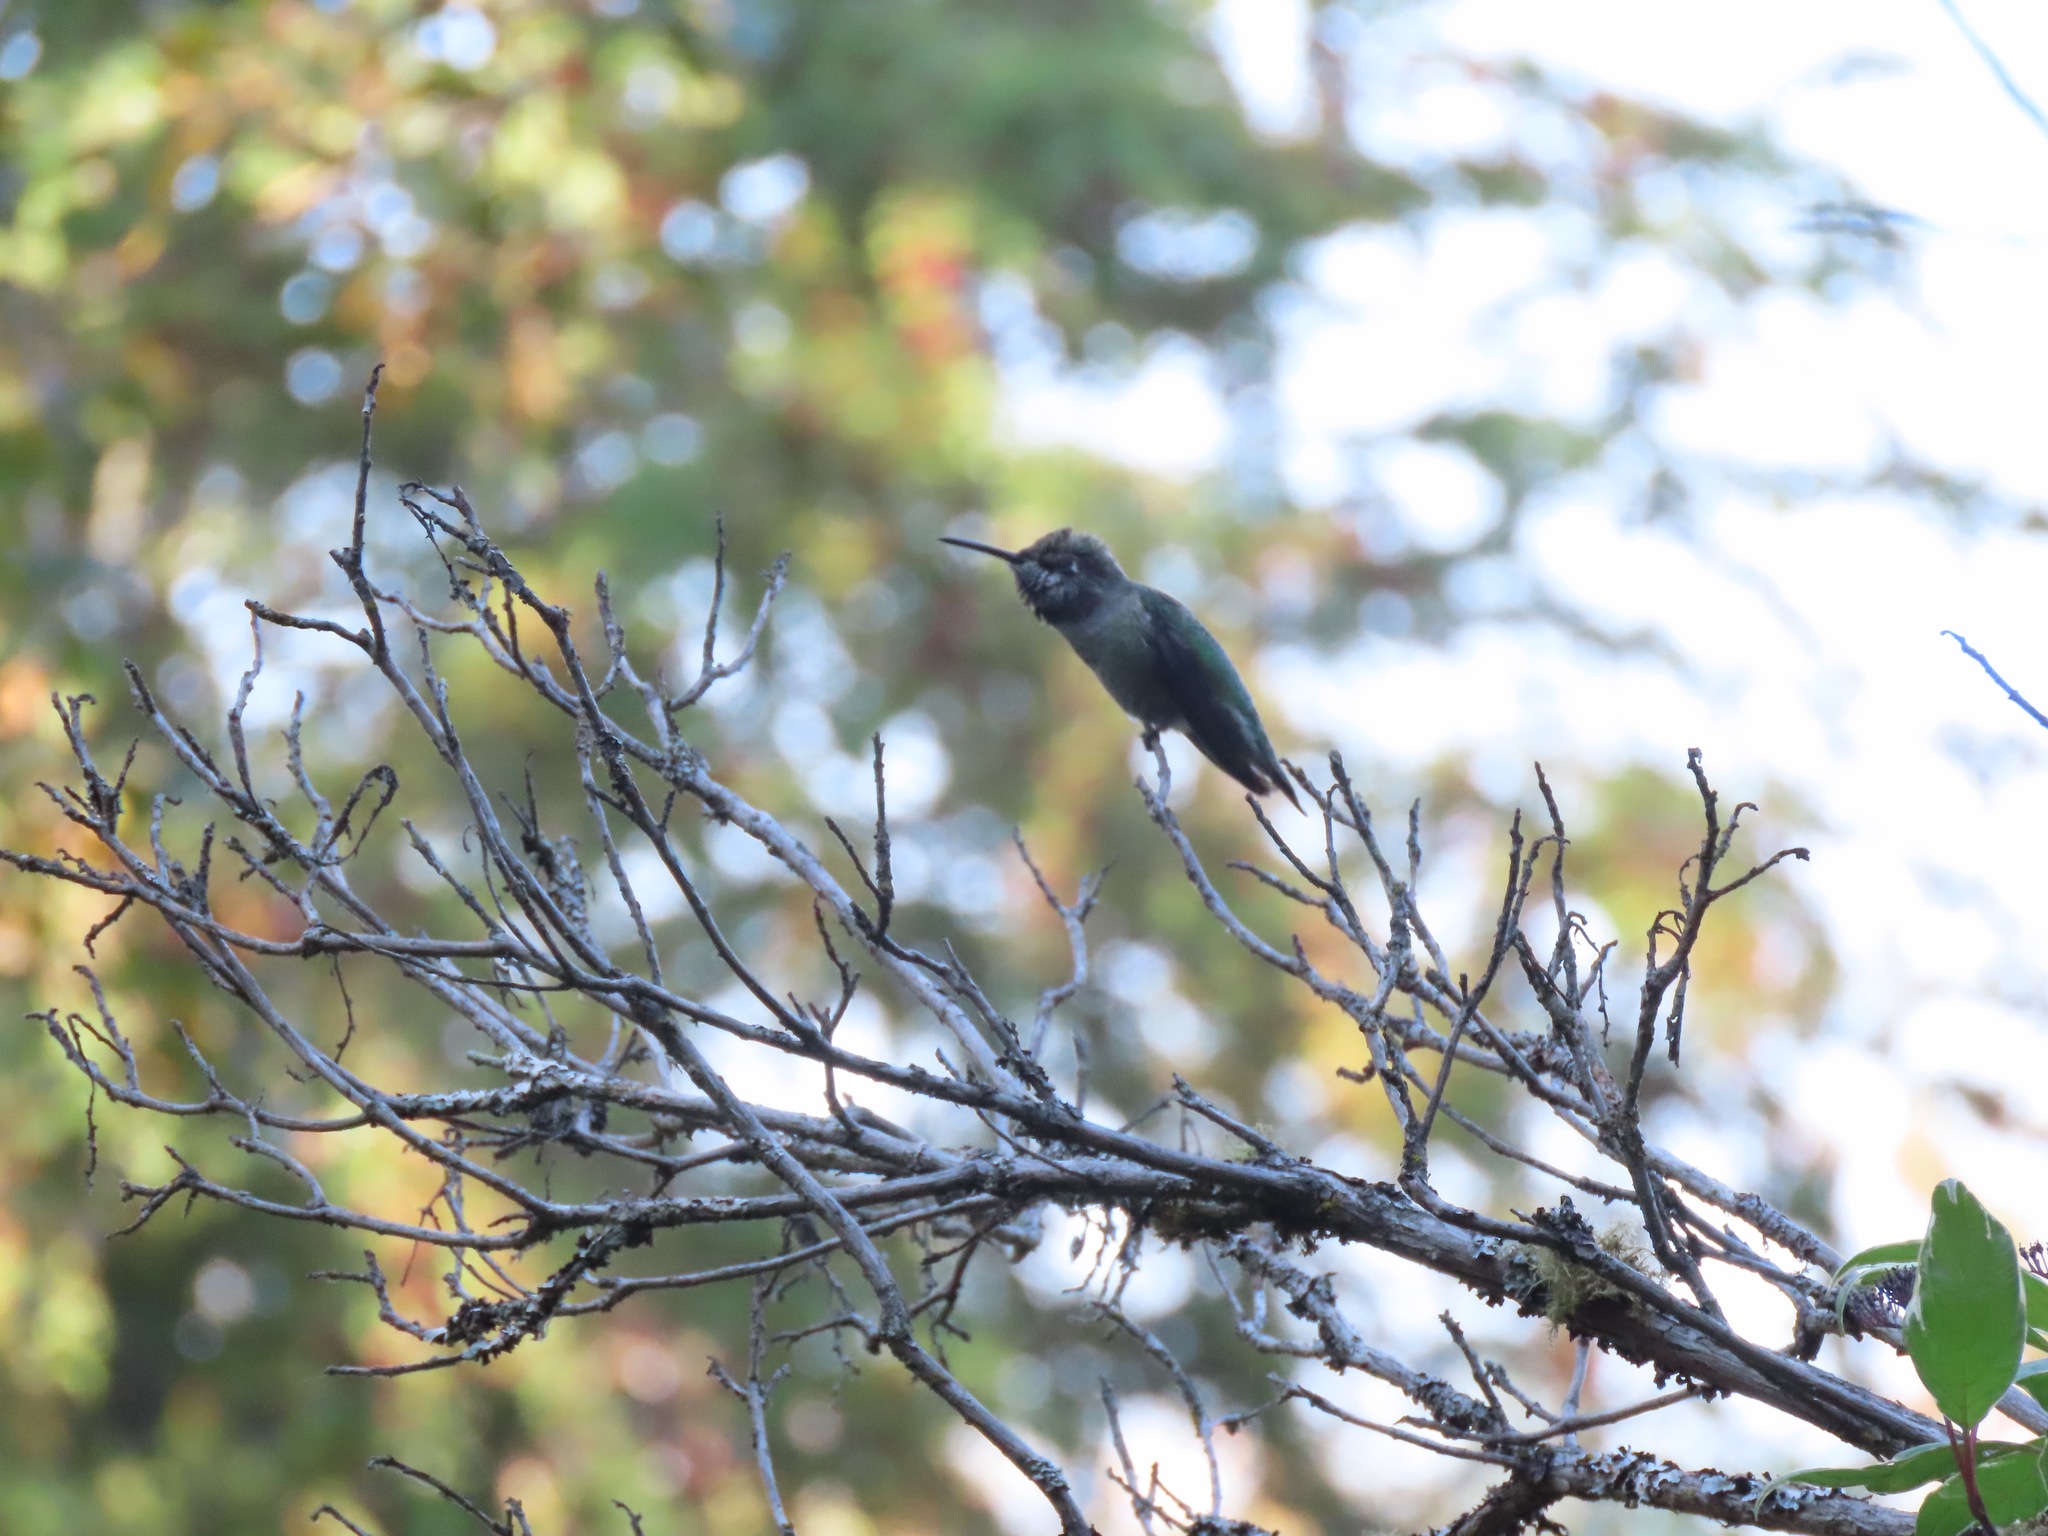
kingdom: Animalia
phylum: Chordata
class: Aves
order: Apodiformes
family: Trochilidae
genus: Calypte
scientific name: Calypte anna
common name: Anna's hummingbird
